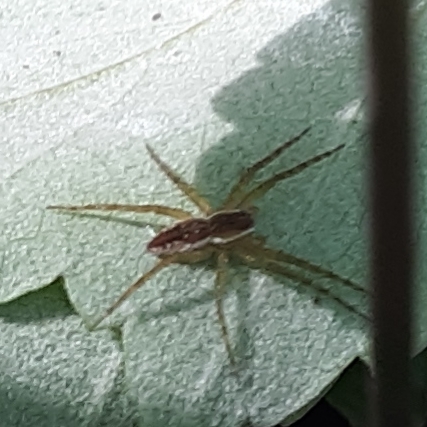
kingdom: Animalia
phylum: Arthropoda
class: Arachnida
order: Araneae
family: Pisauridae
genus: Dolomedes
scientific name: Dolomedes triton
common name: Six-spotted fishing spider
